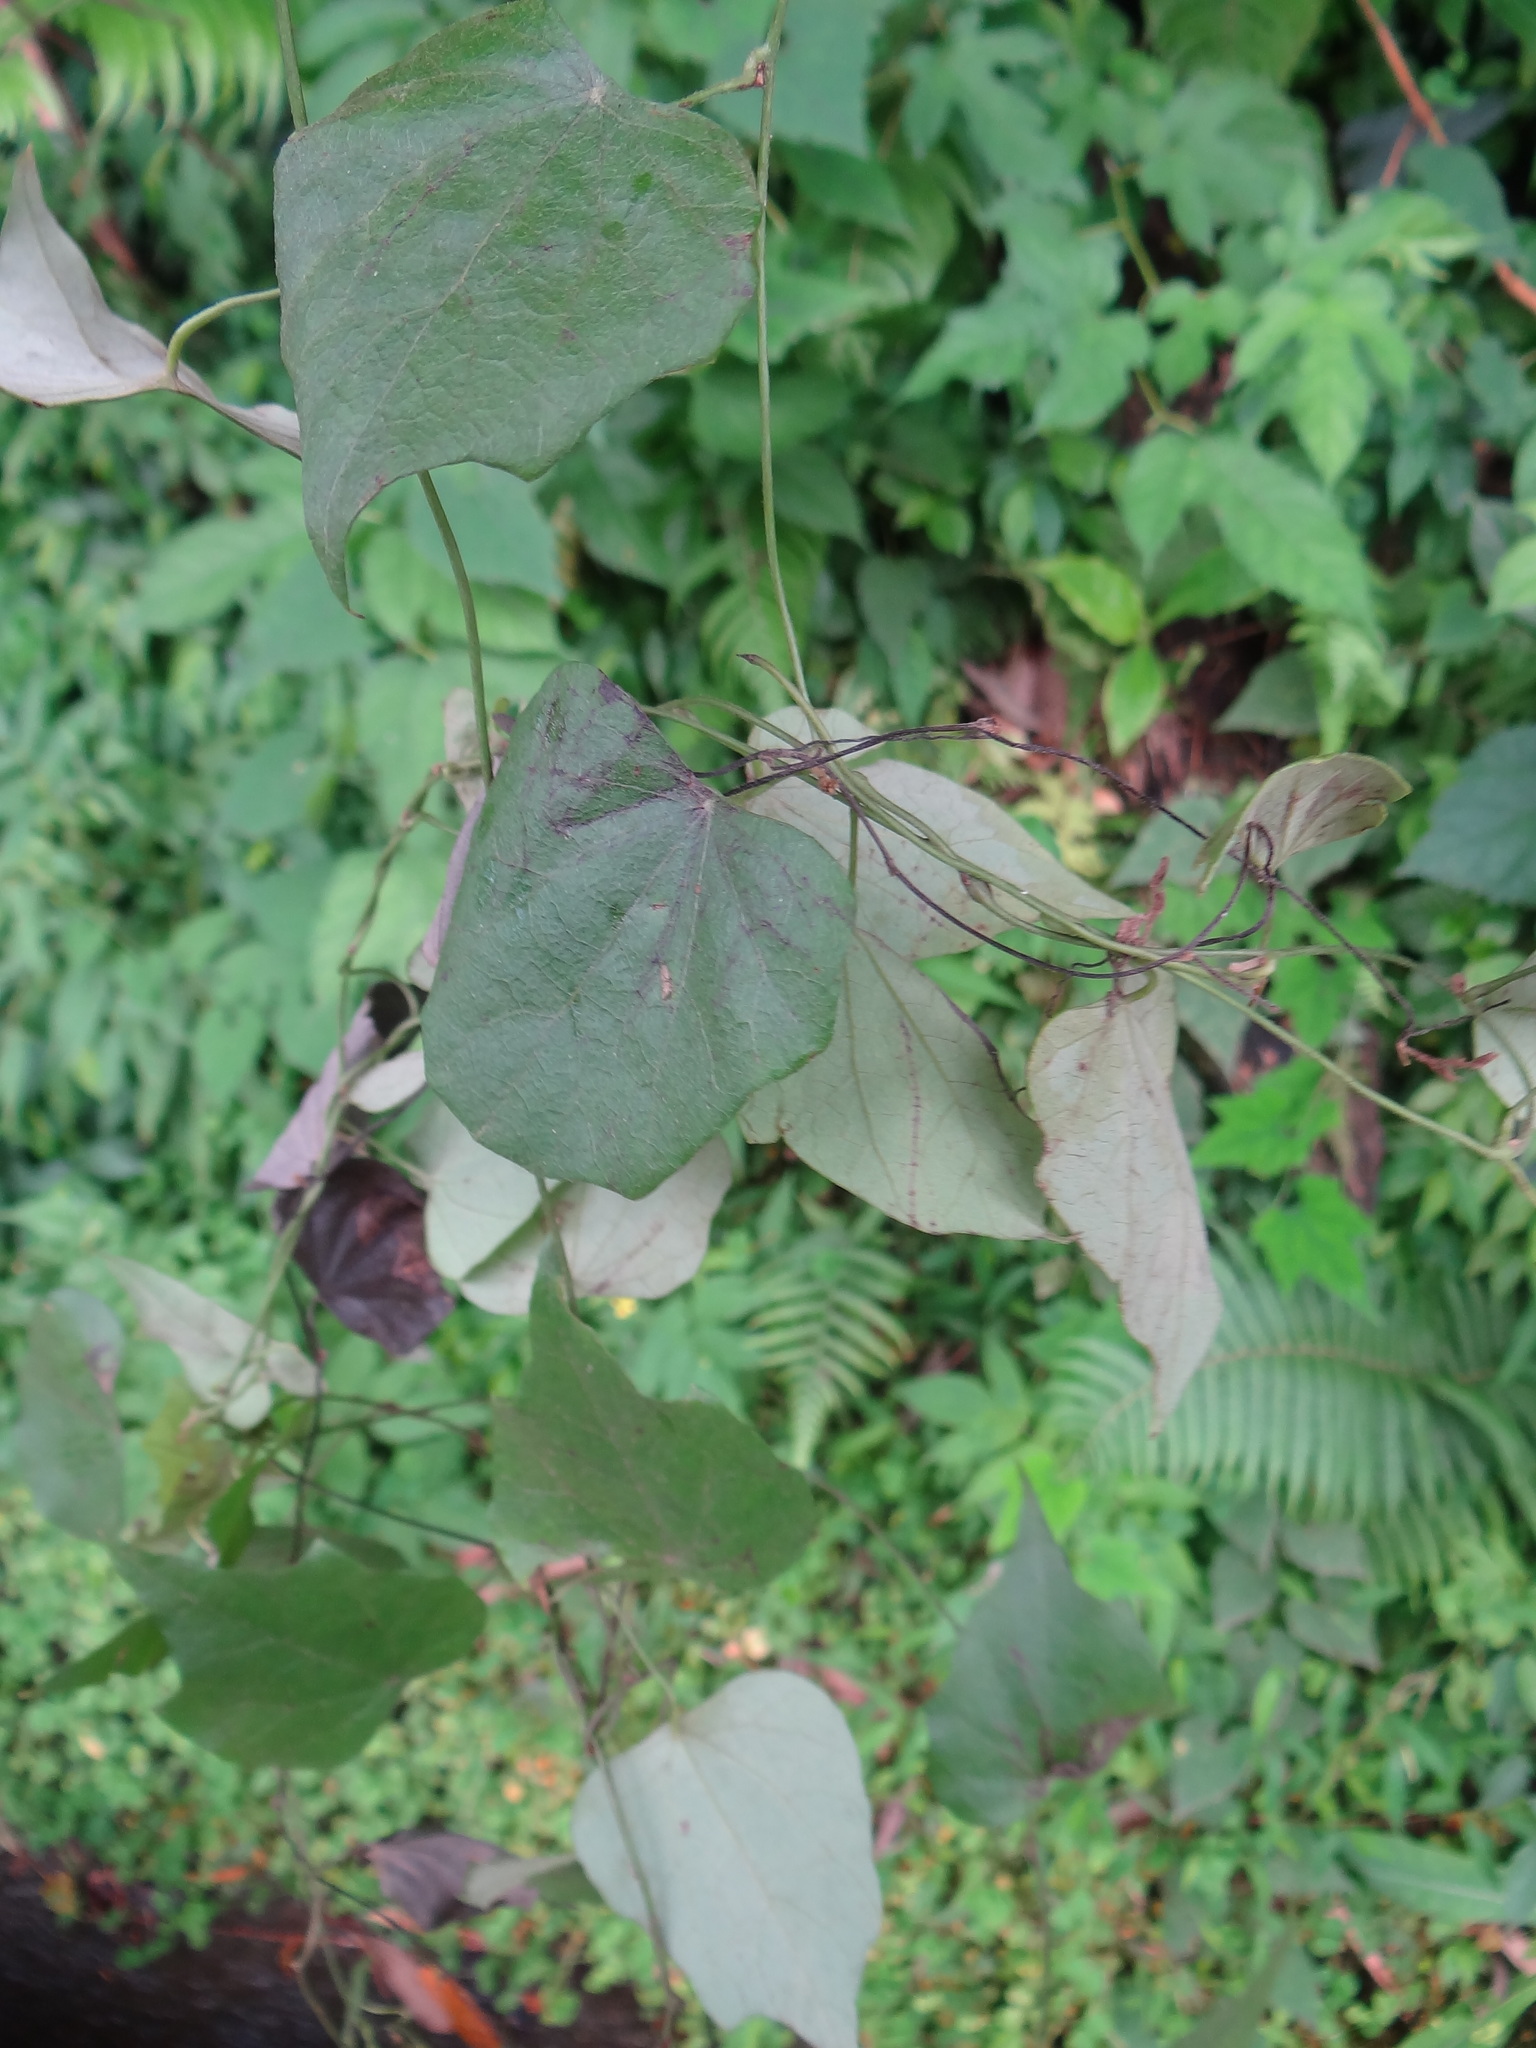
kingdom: Plantae
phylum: Tracheophyta
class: Magnoliopsida
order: Ranunculales
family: Menispermaceae
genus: Cyclea
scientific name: Cyclea ochiaiana
